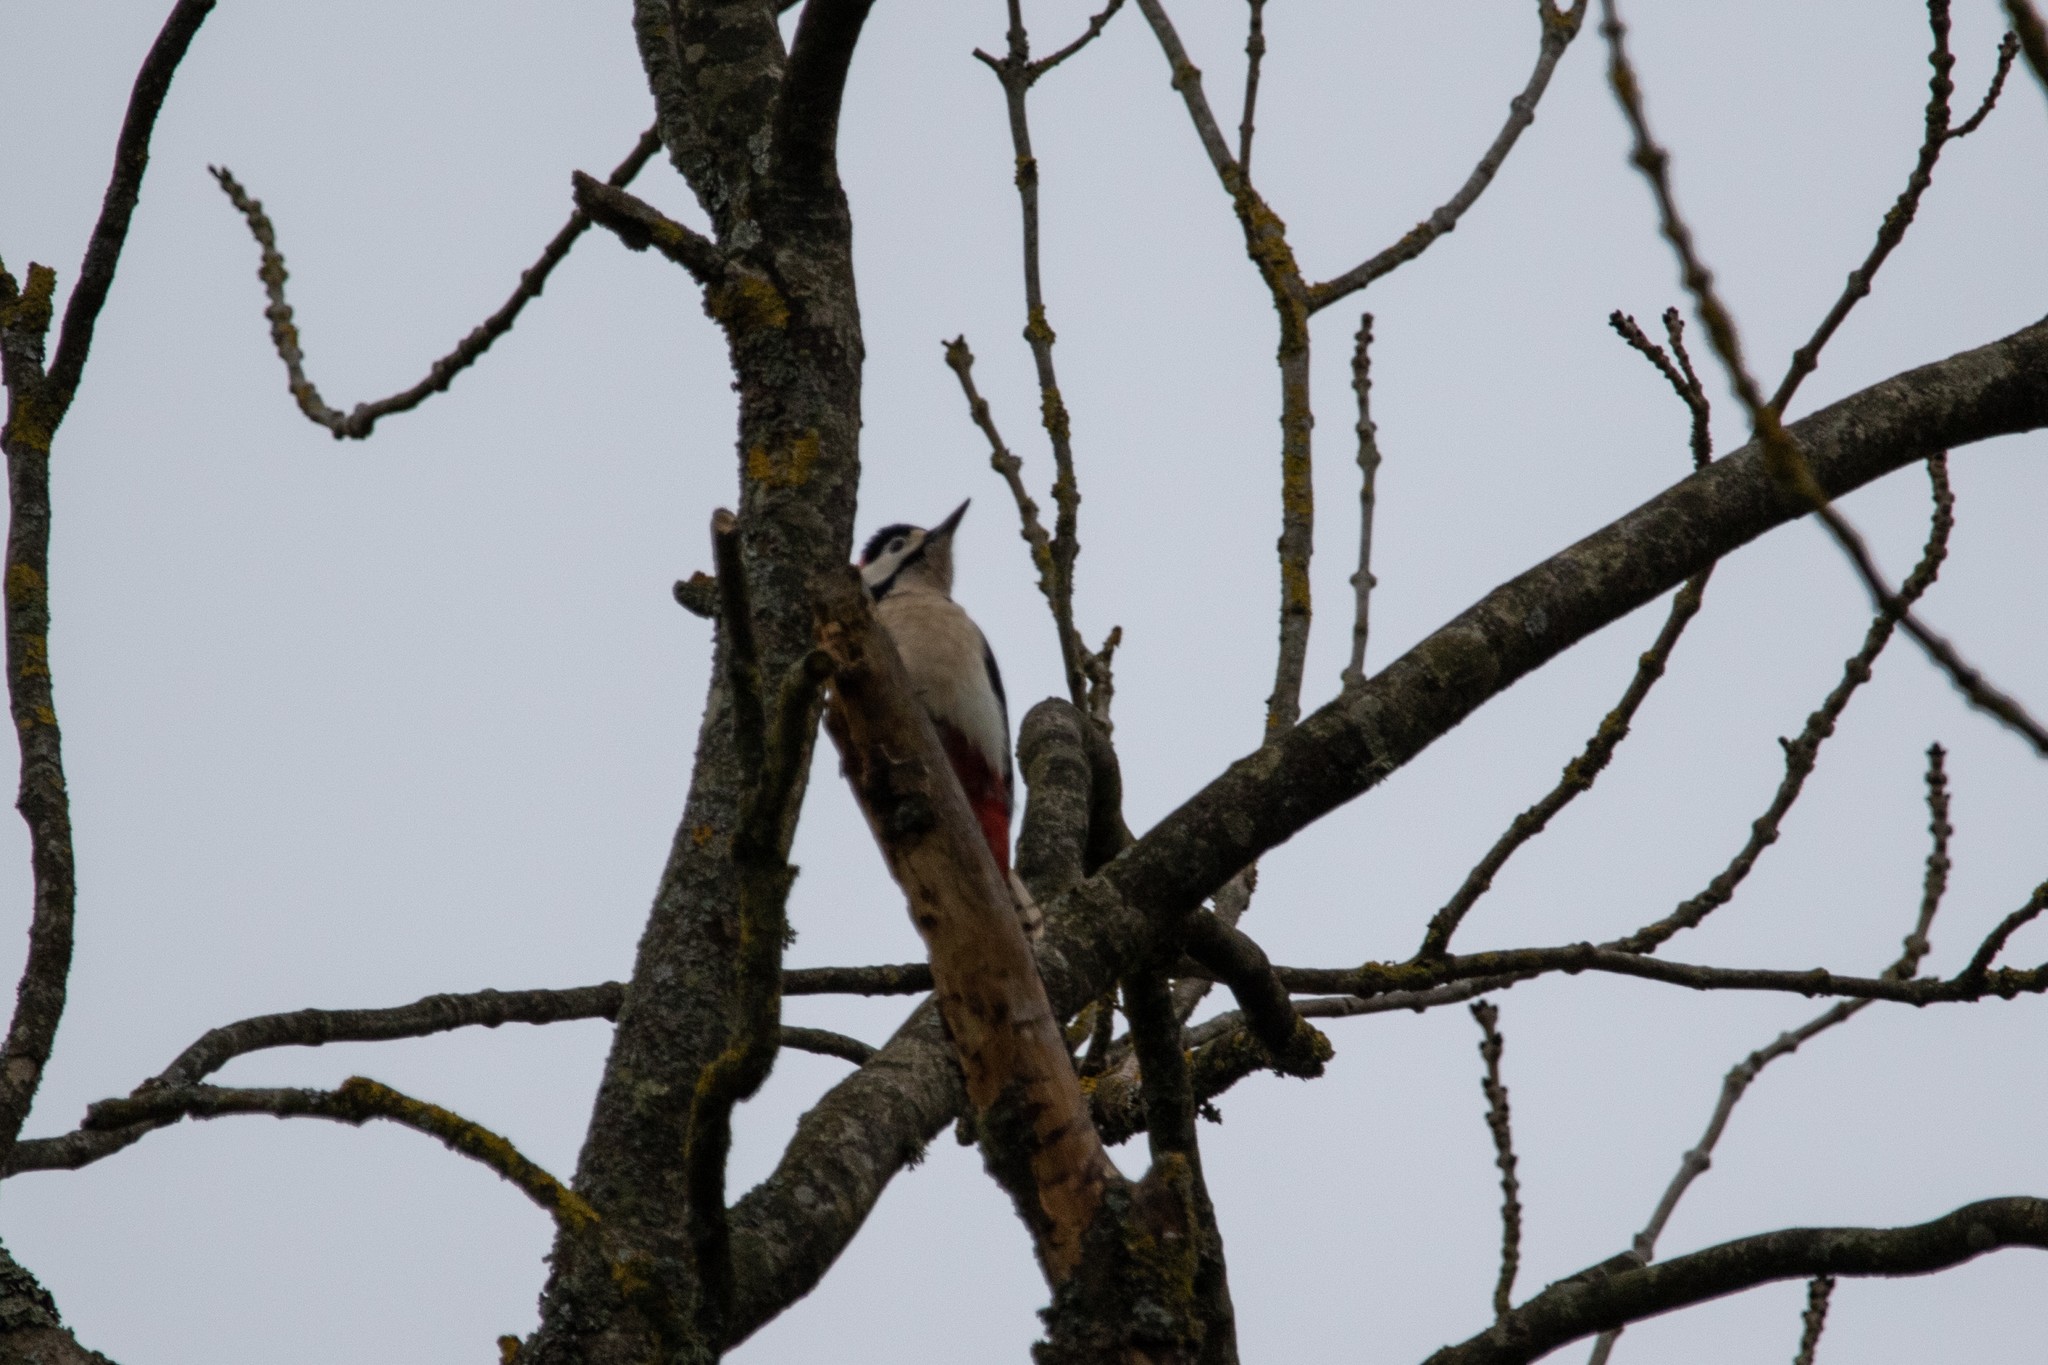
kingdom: Animalia
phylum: Chordata
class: Aves
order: Piciformes
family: Picidae
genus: Dendrocopos
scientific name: Dendrocopos major
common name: Great spotted woodpecker
